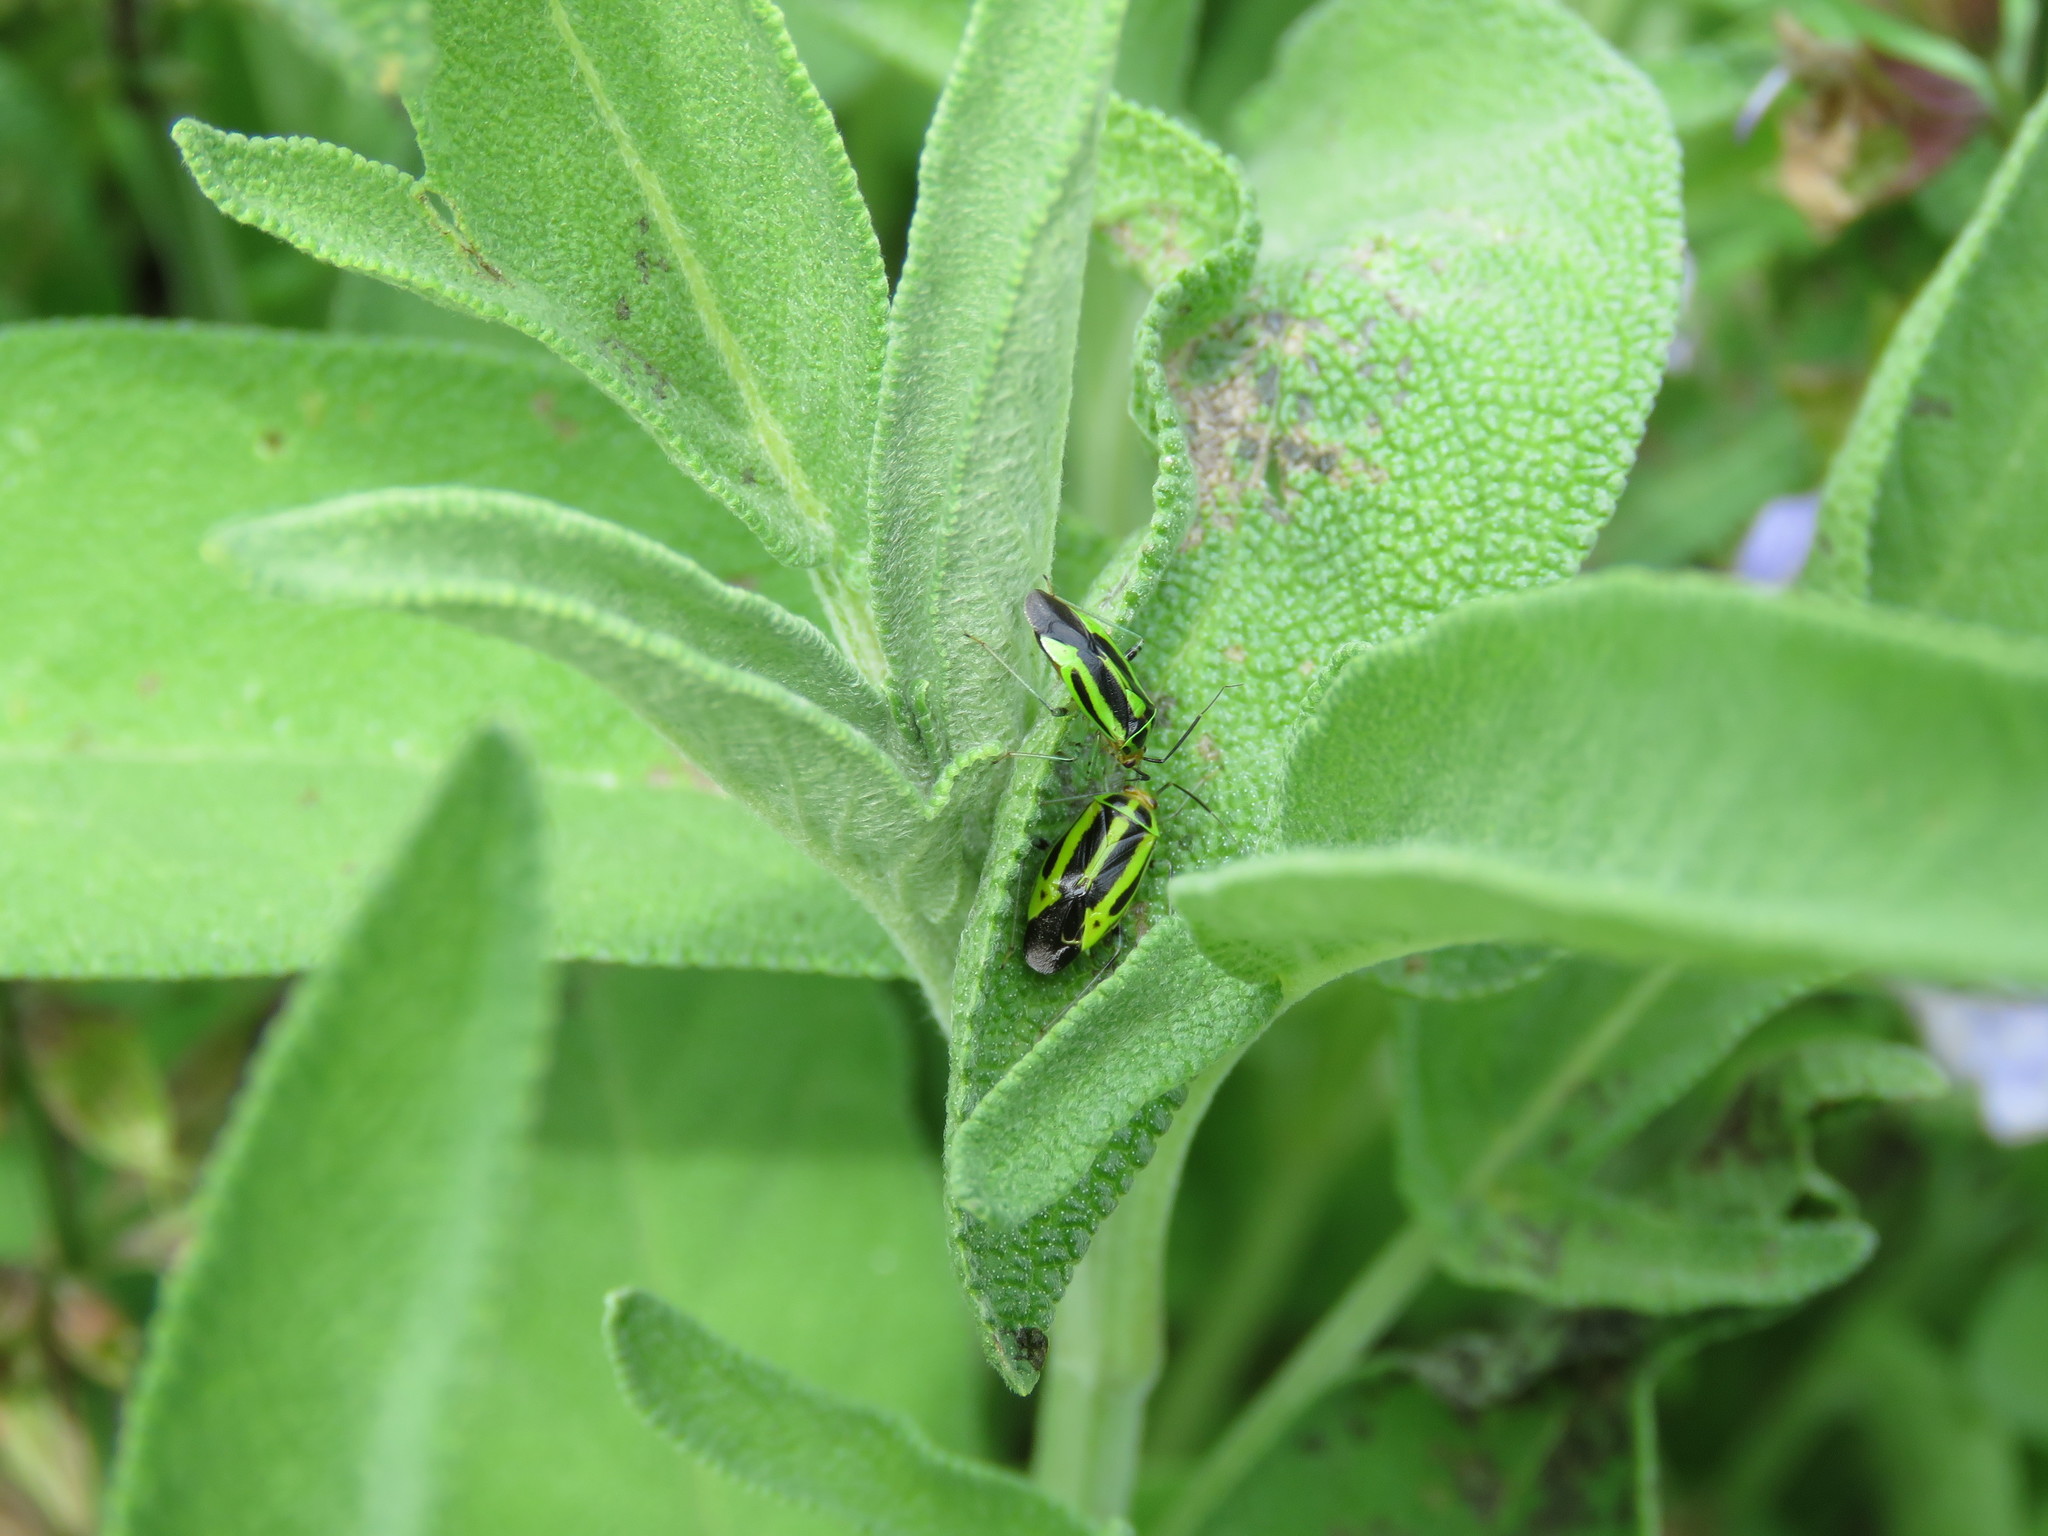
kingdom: Animalia
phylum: Arthropoda
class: Insecta
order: Hemiptera
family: Miridae
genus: Poecilocapsus
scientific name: Poecilocapsus lineatus
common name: Four-lined plant bug
